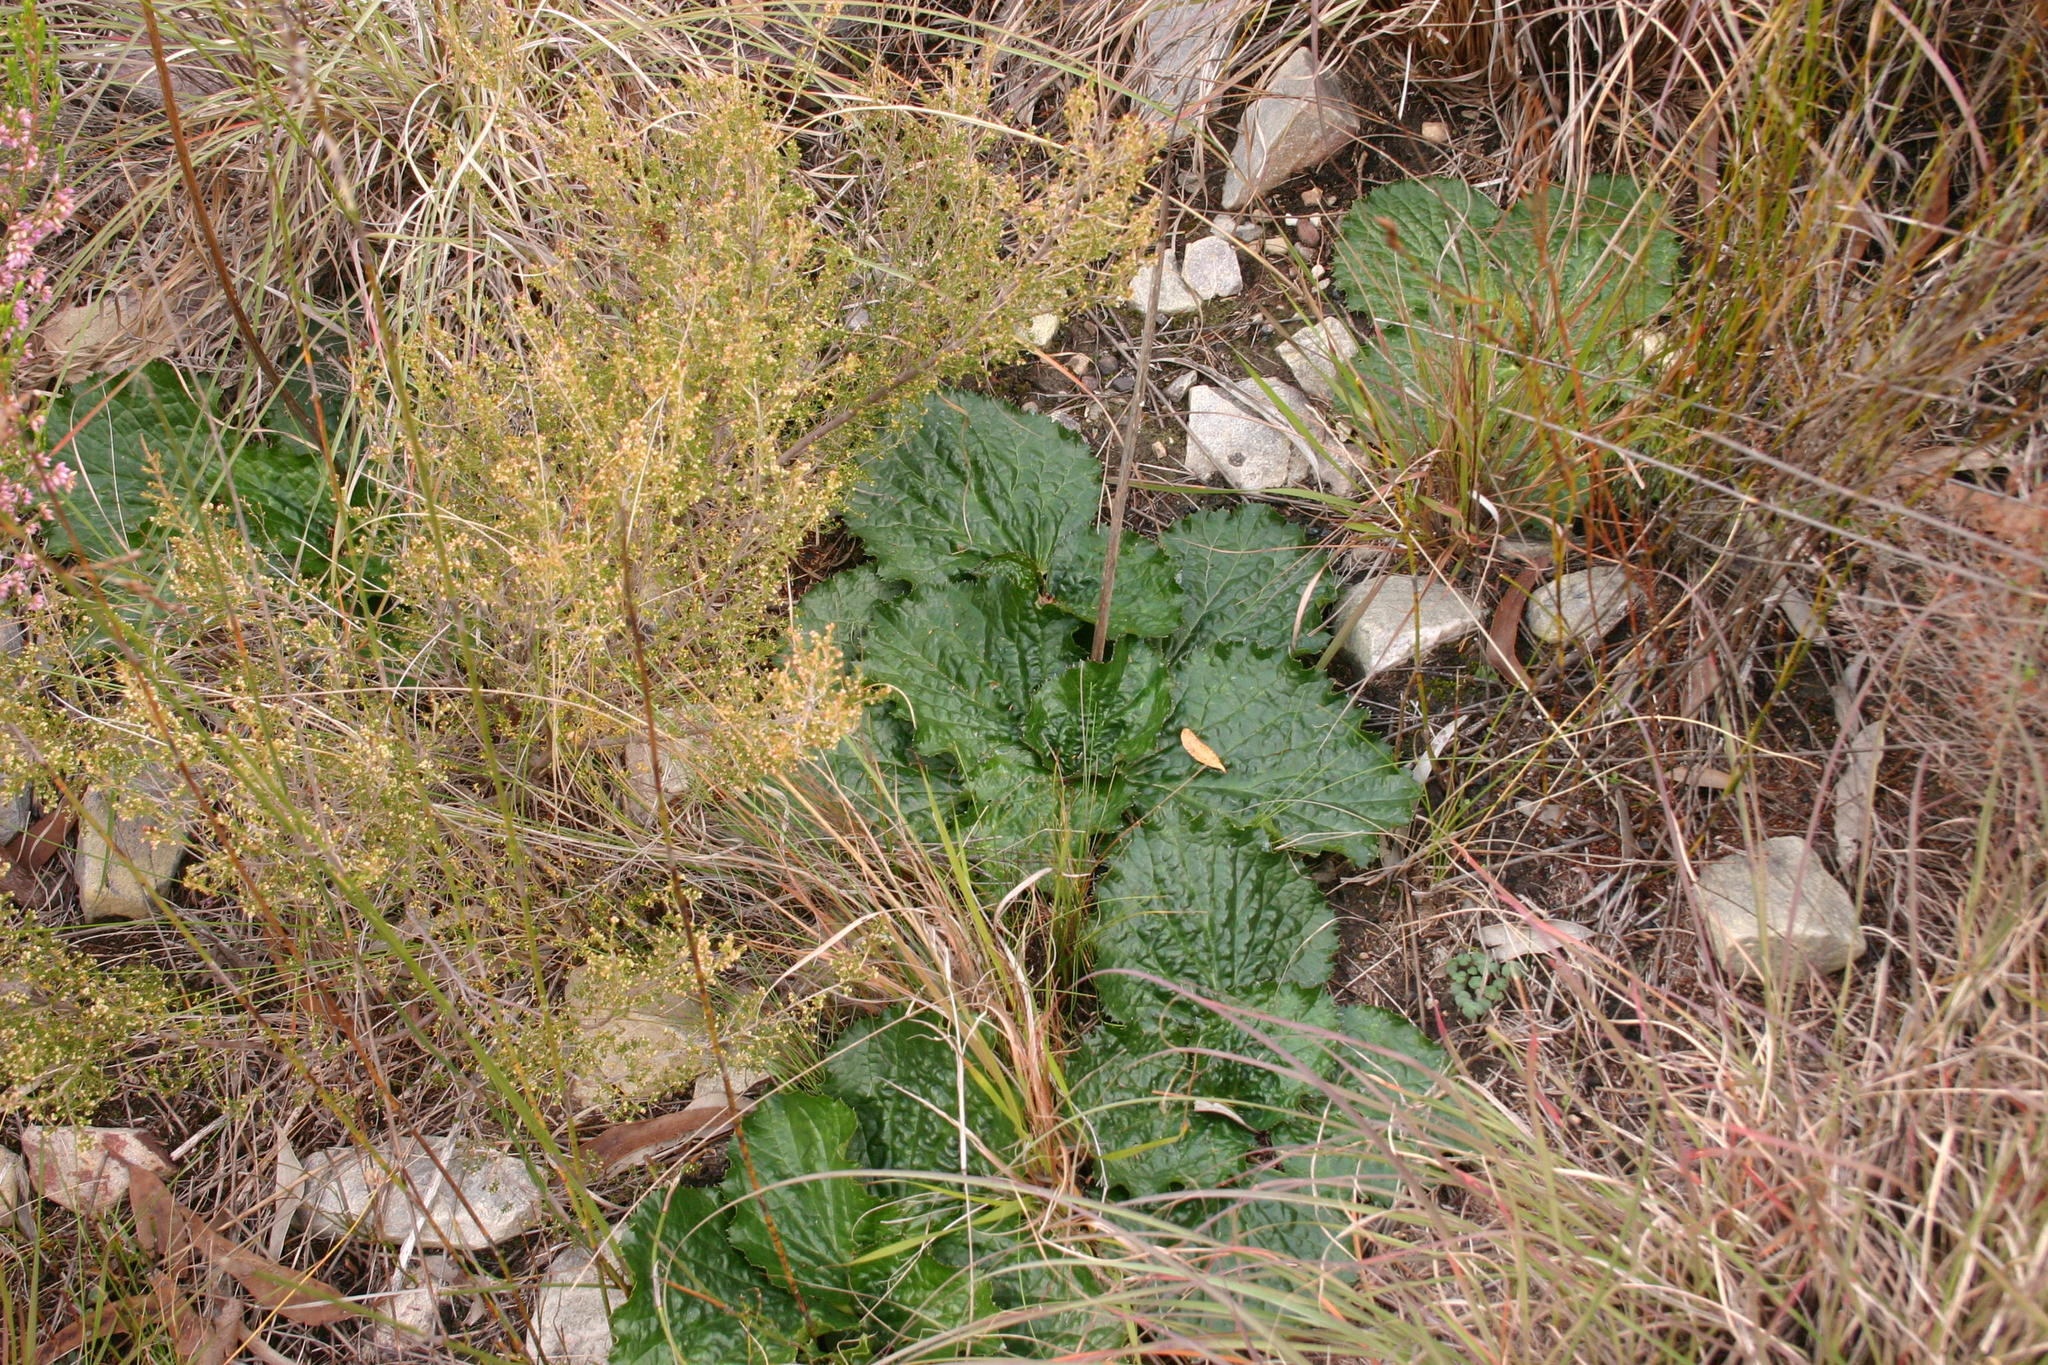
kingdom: Plantae
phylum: Tracheophyta
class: Magnoliopsida
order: Apiales
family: Apiaceae
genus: Lichtensteinia
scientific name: Lichtensteinia latifolia
